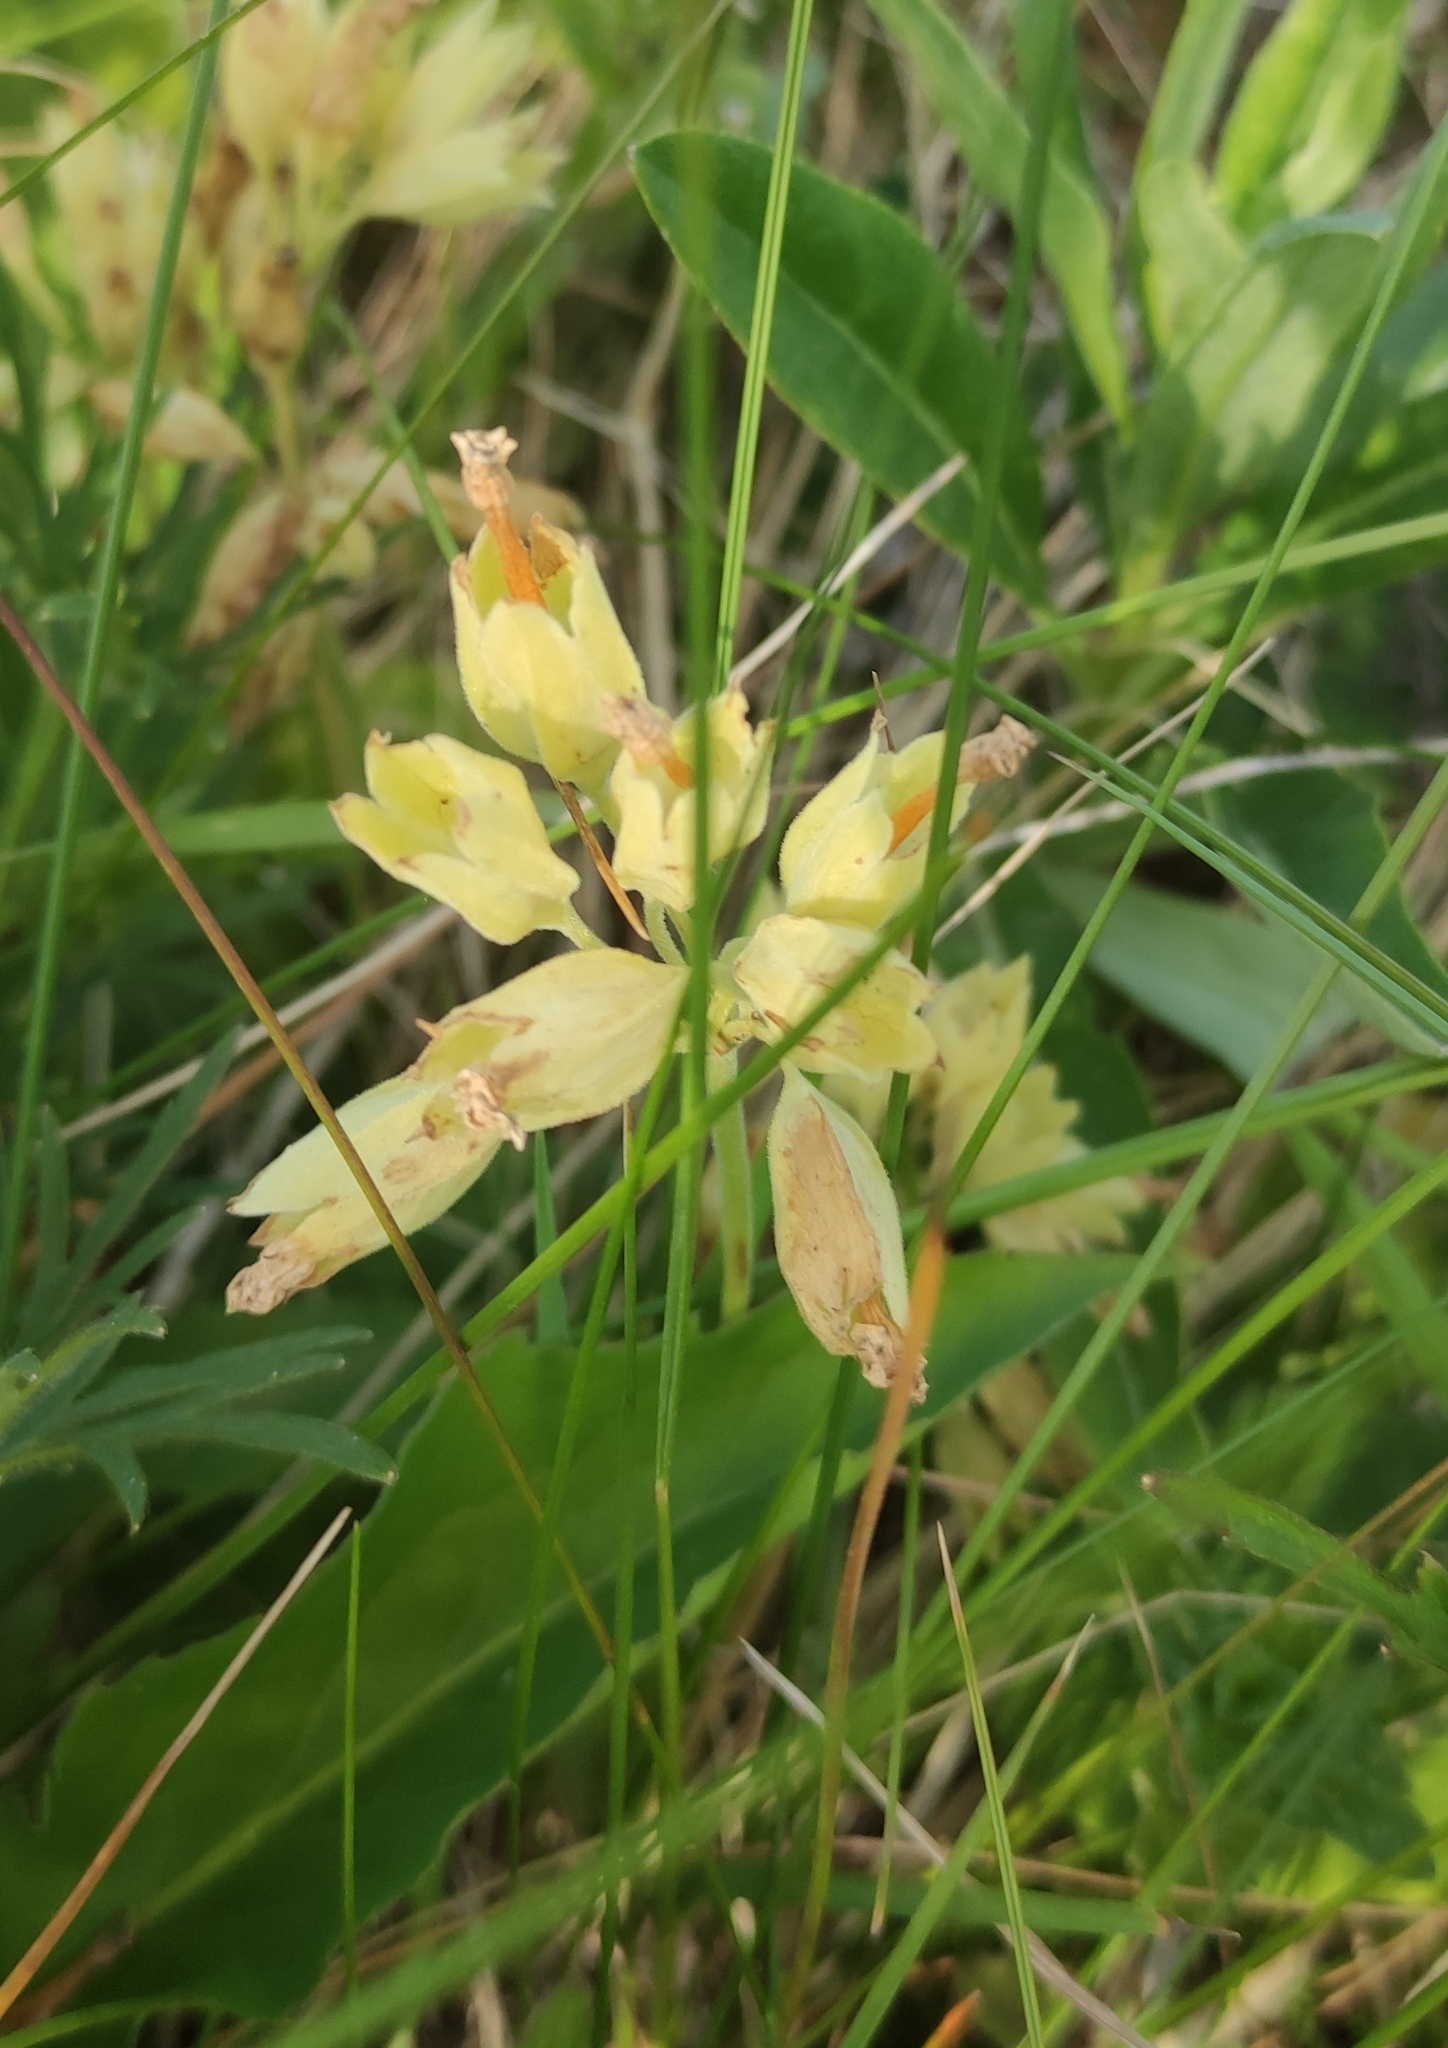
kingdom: Plantae
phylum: Tracheophyta
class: Magnoliopsida
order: Ericales
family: Primulaceae
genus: Primula
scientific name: Primula veris
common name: Cowslip
